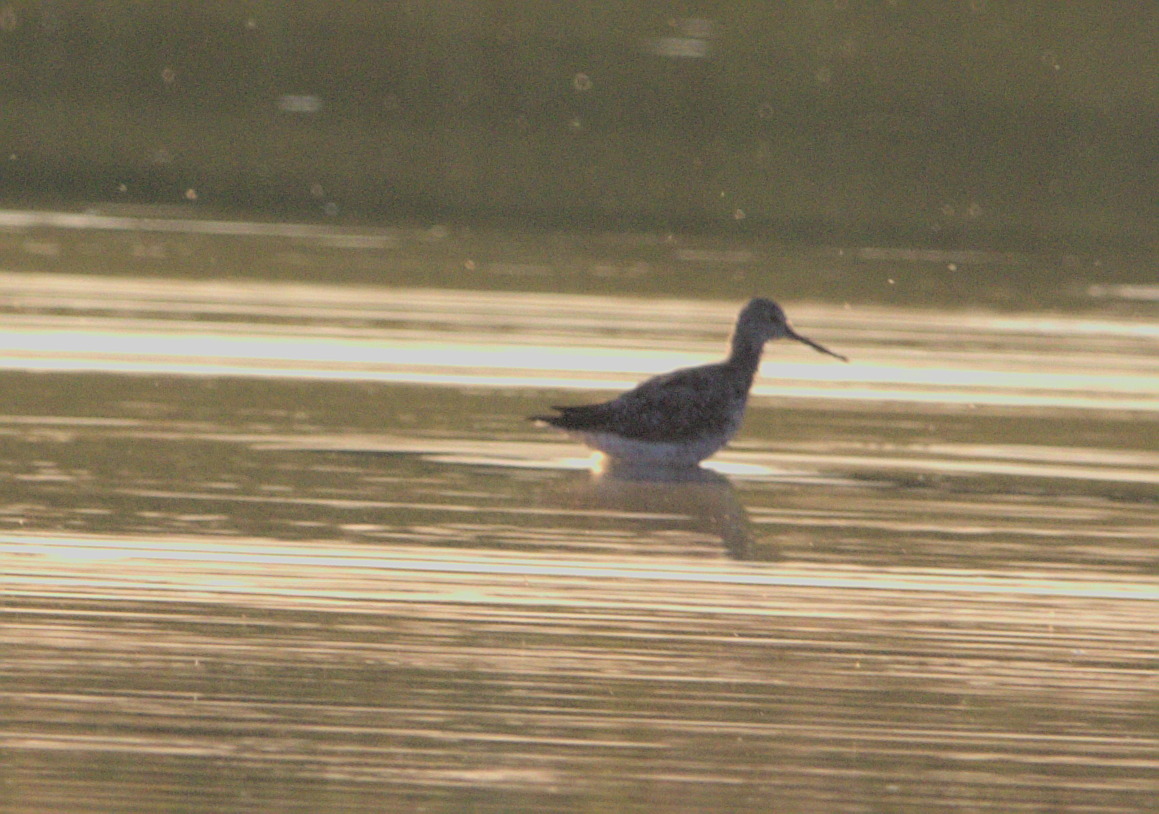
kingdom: Animalia
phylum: Chordata
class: Aves
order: Charadriiformes
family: Scolopacidae
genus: Tringa
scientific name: Tringa melanoleuca
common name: Greater yellowlegs
